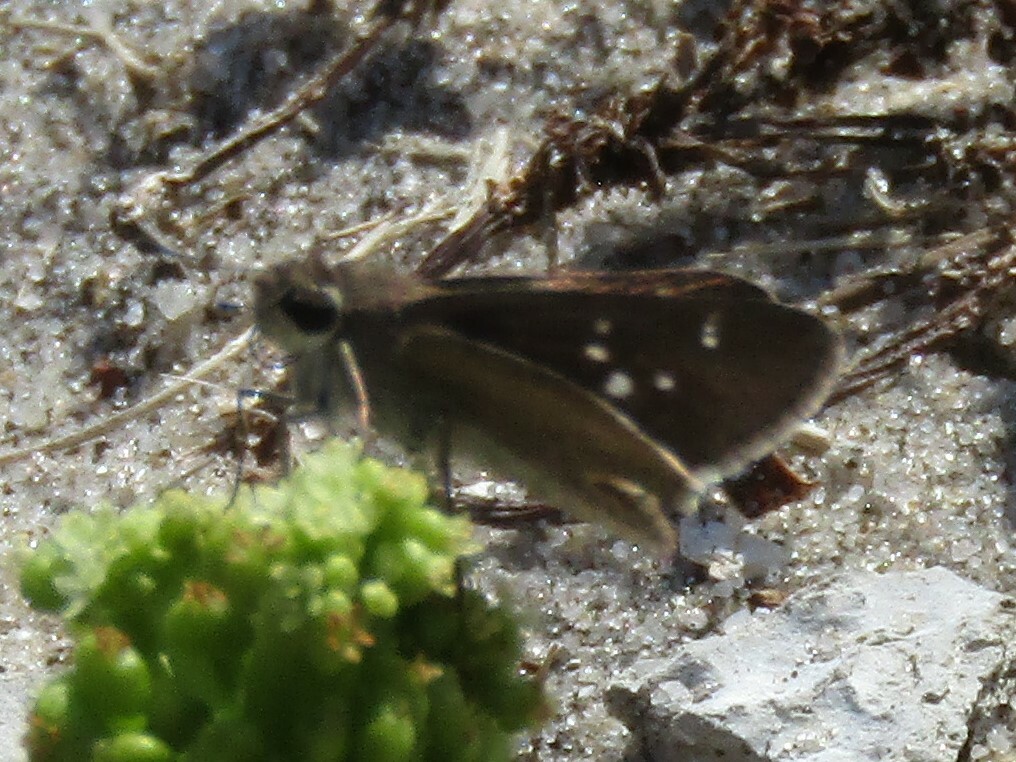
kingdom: Animalia
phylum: Arthropoda
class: Insecta
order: Lepidoptera
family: Hesperiidae
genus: Lerodea
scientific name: Lerodea eufala
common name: Eufala skipper
